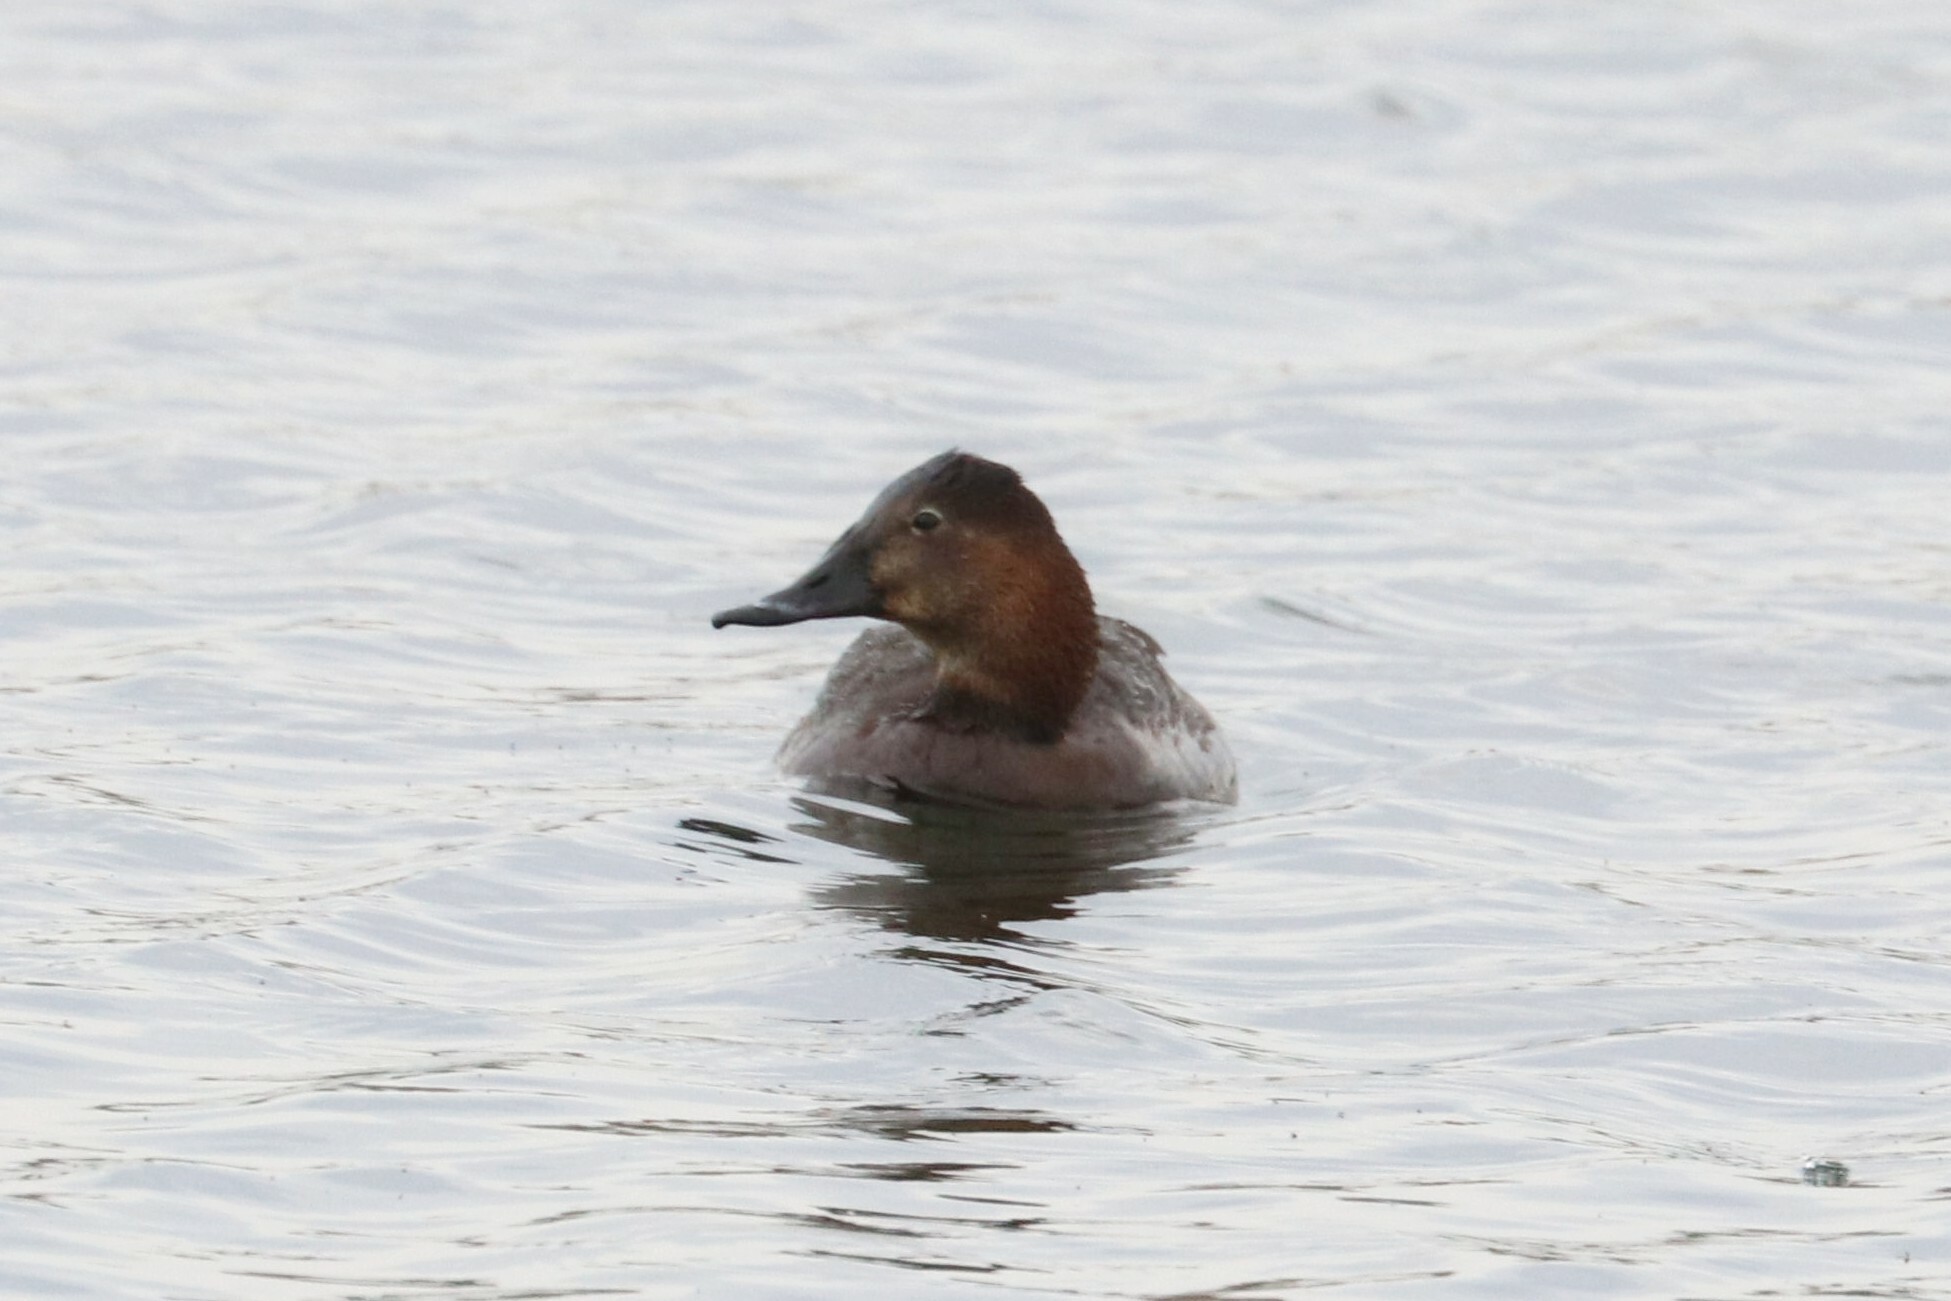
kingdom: Animalia
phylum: Chordata
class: Aves
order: Anseriformes
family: Anatidae
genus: Aythya
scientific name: Aythya ferina
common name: Common pochard
